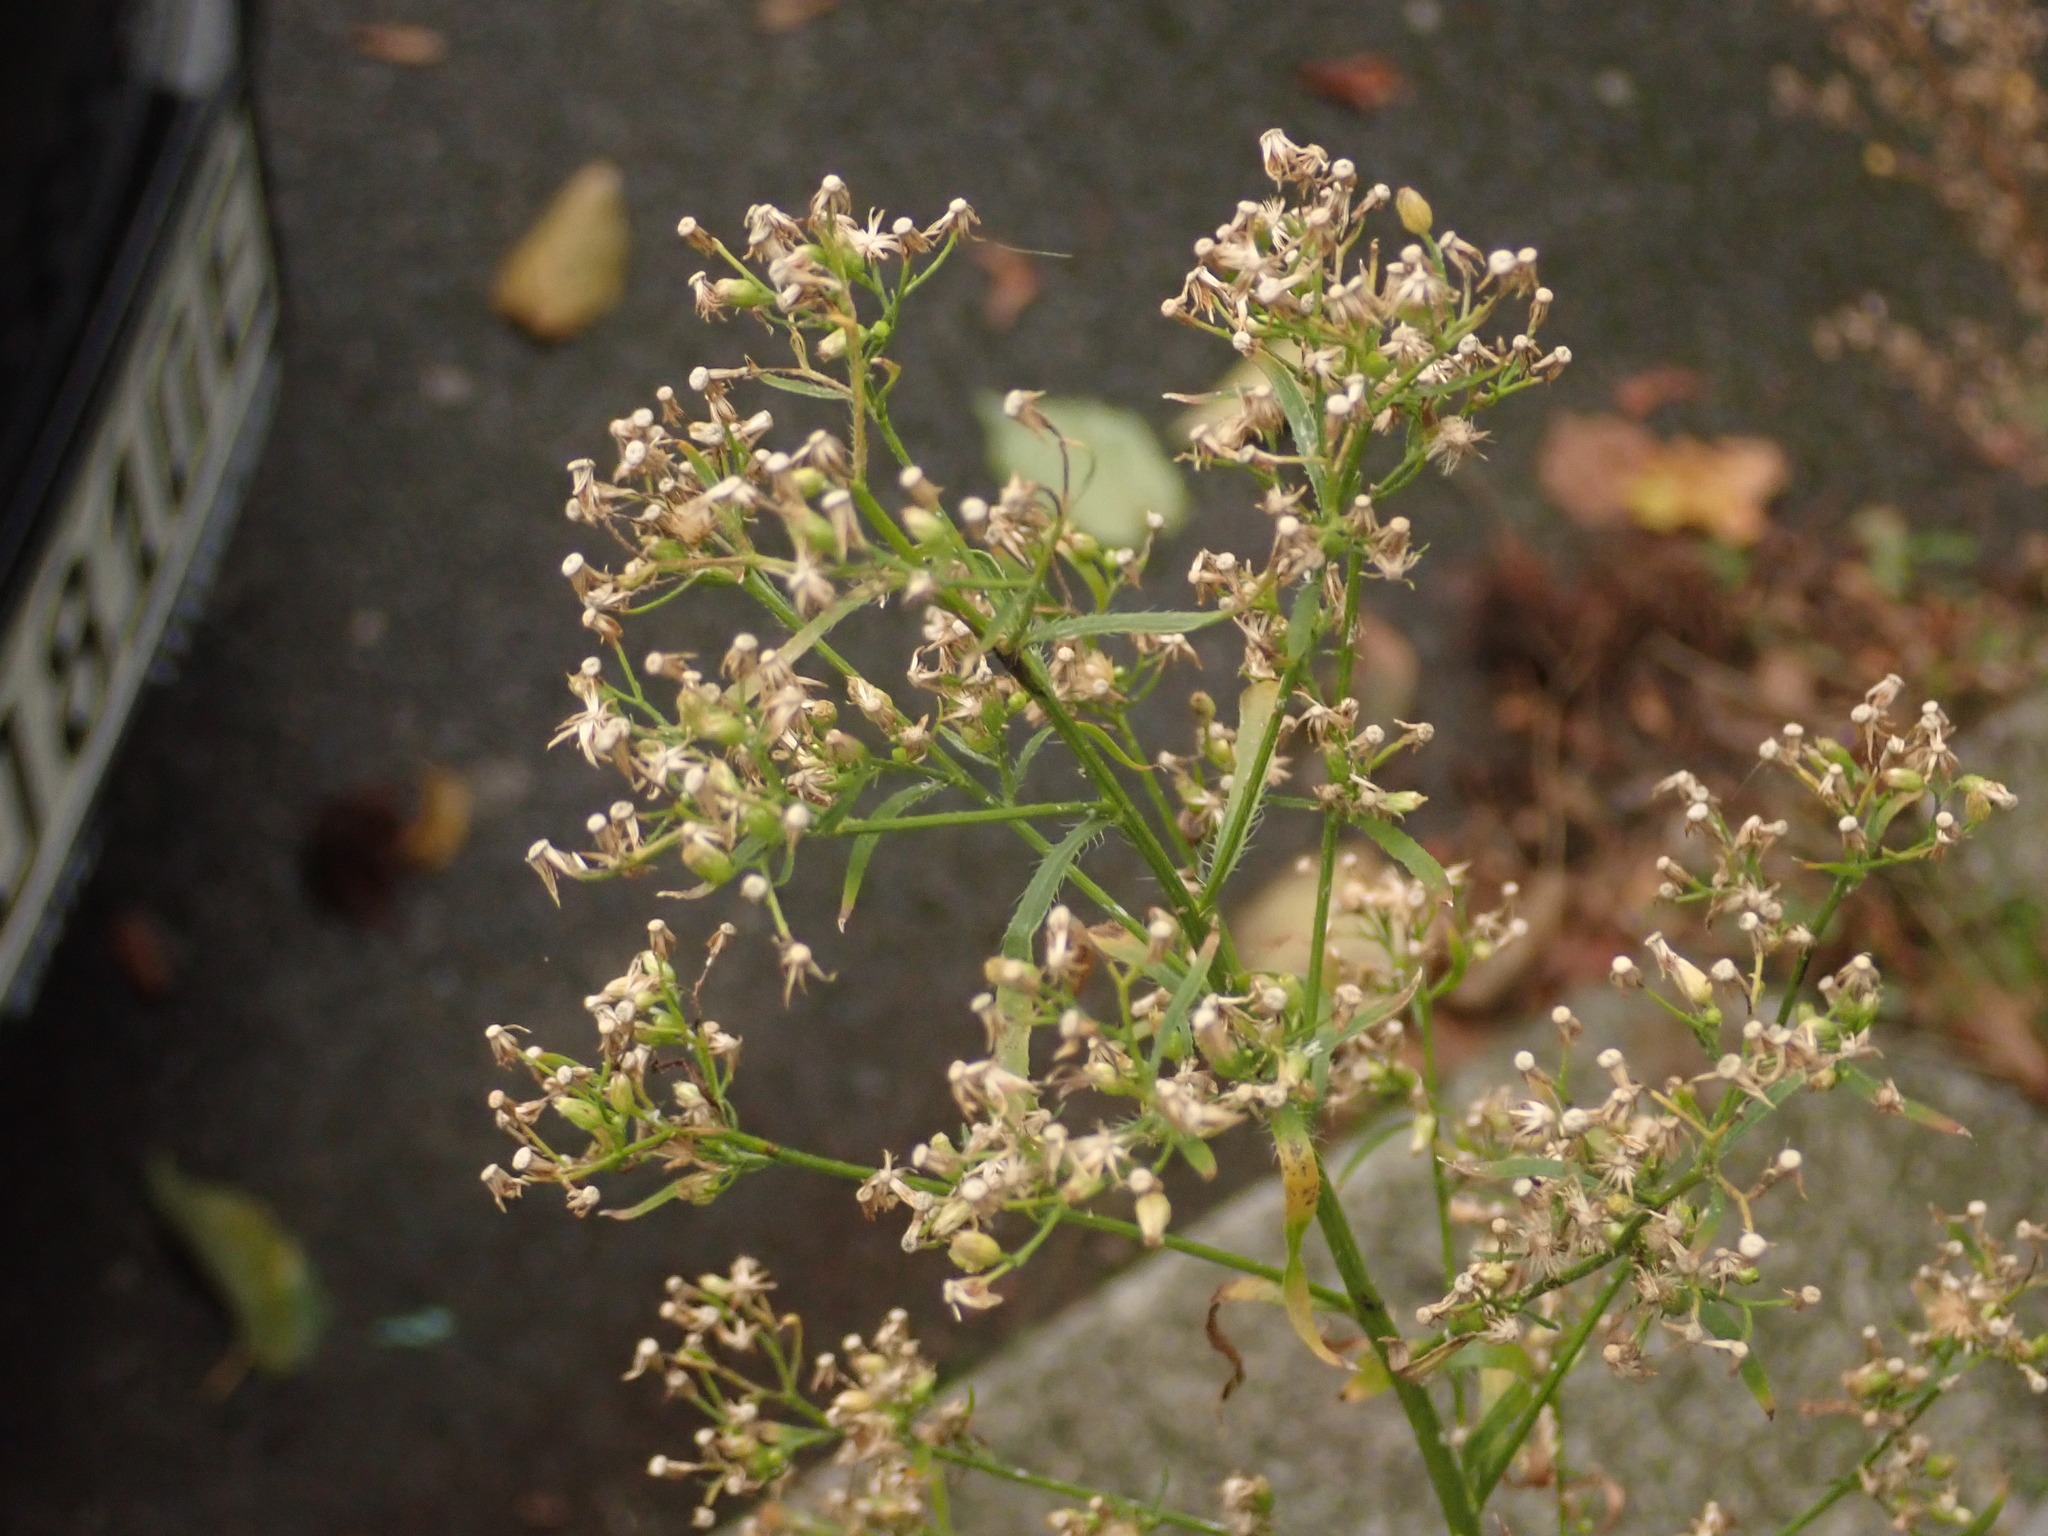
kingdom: Plantae
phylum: Tracheophyta
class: Magnoliopsida
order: Asterales
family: Asteraceae
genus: Erigeron
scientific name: Erigeron canadensis
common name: Canadian fleabane
